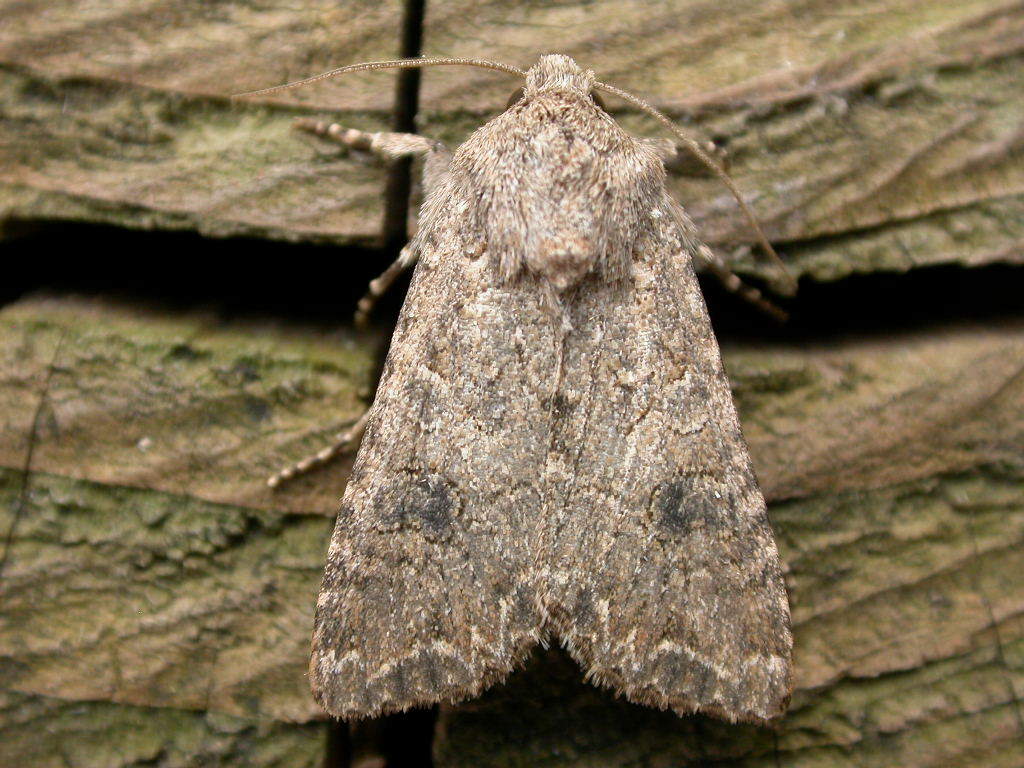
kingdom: Animalia
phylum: Arthropoda
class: Insecta
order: Lepidoptera
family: Noctuidae
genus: Anarta
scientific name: Anarta trifolii
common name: Clover cutworm moth
